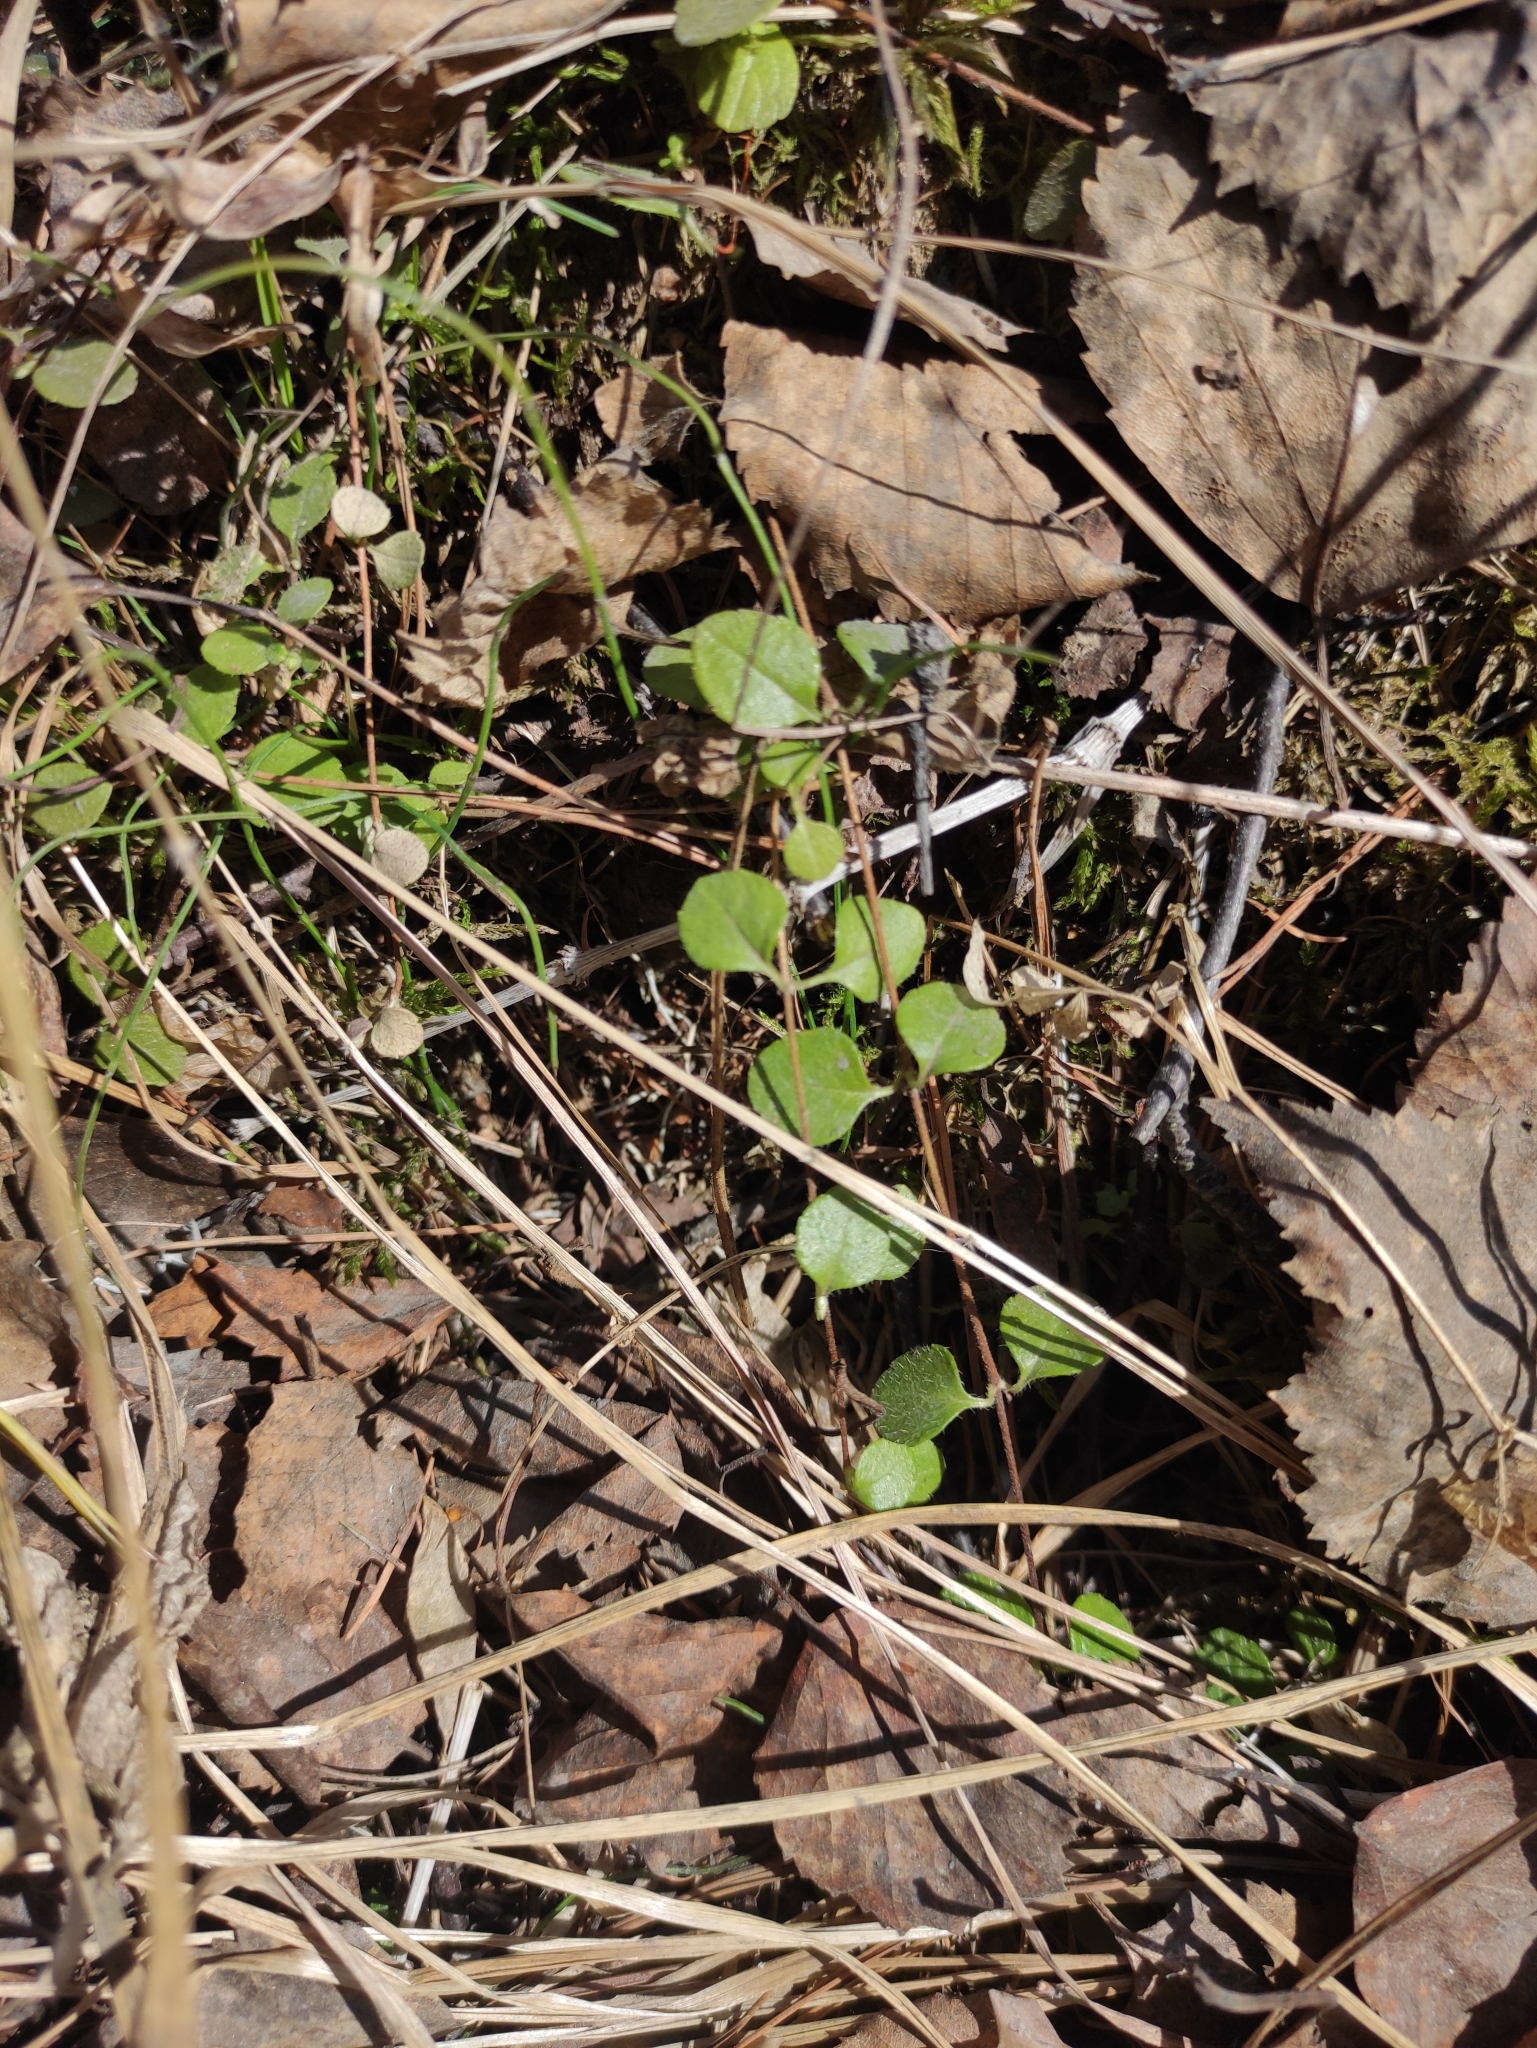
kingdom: Plantae
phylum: Tracheophyta
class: Magnoliopsida
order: Dipsacales
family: Caprifoliaceae
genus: Linnaea
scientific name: Linnaea borealis
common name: Twinflower
